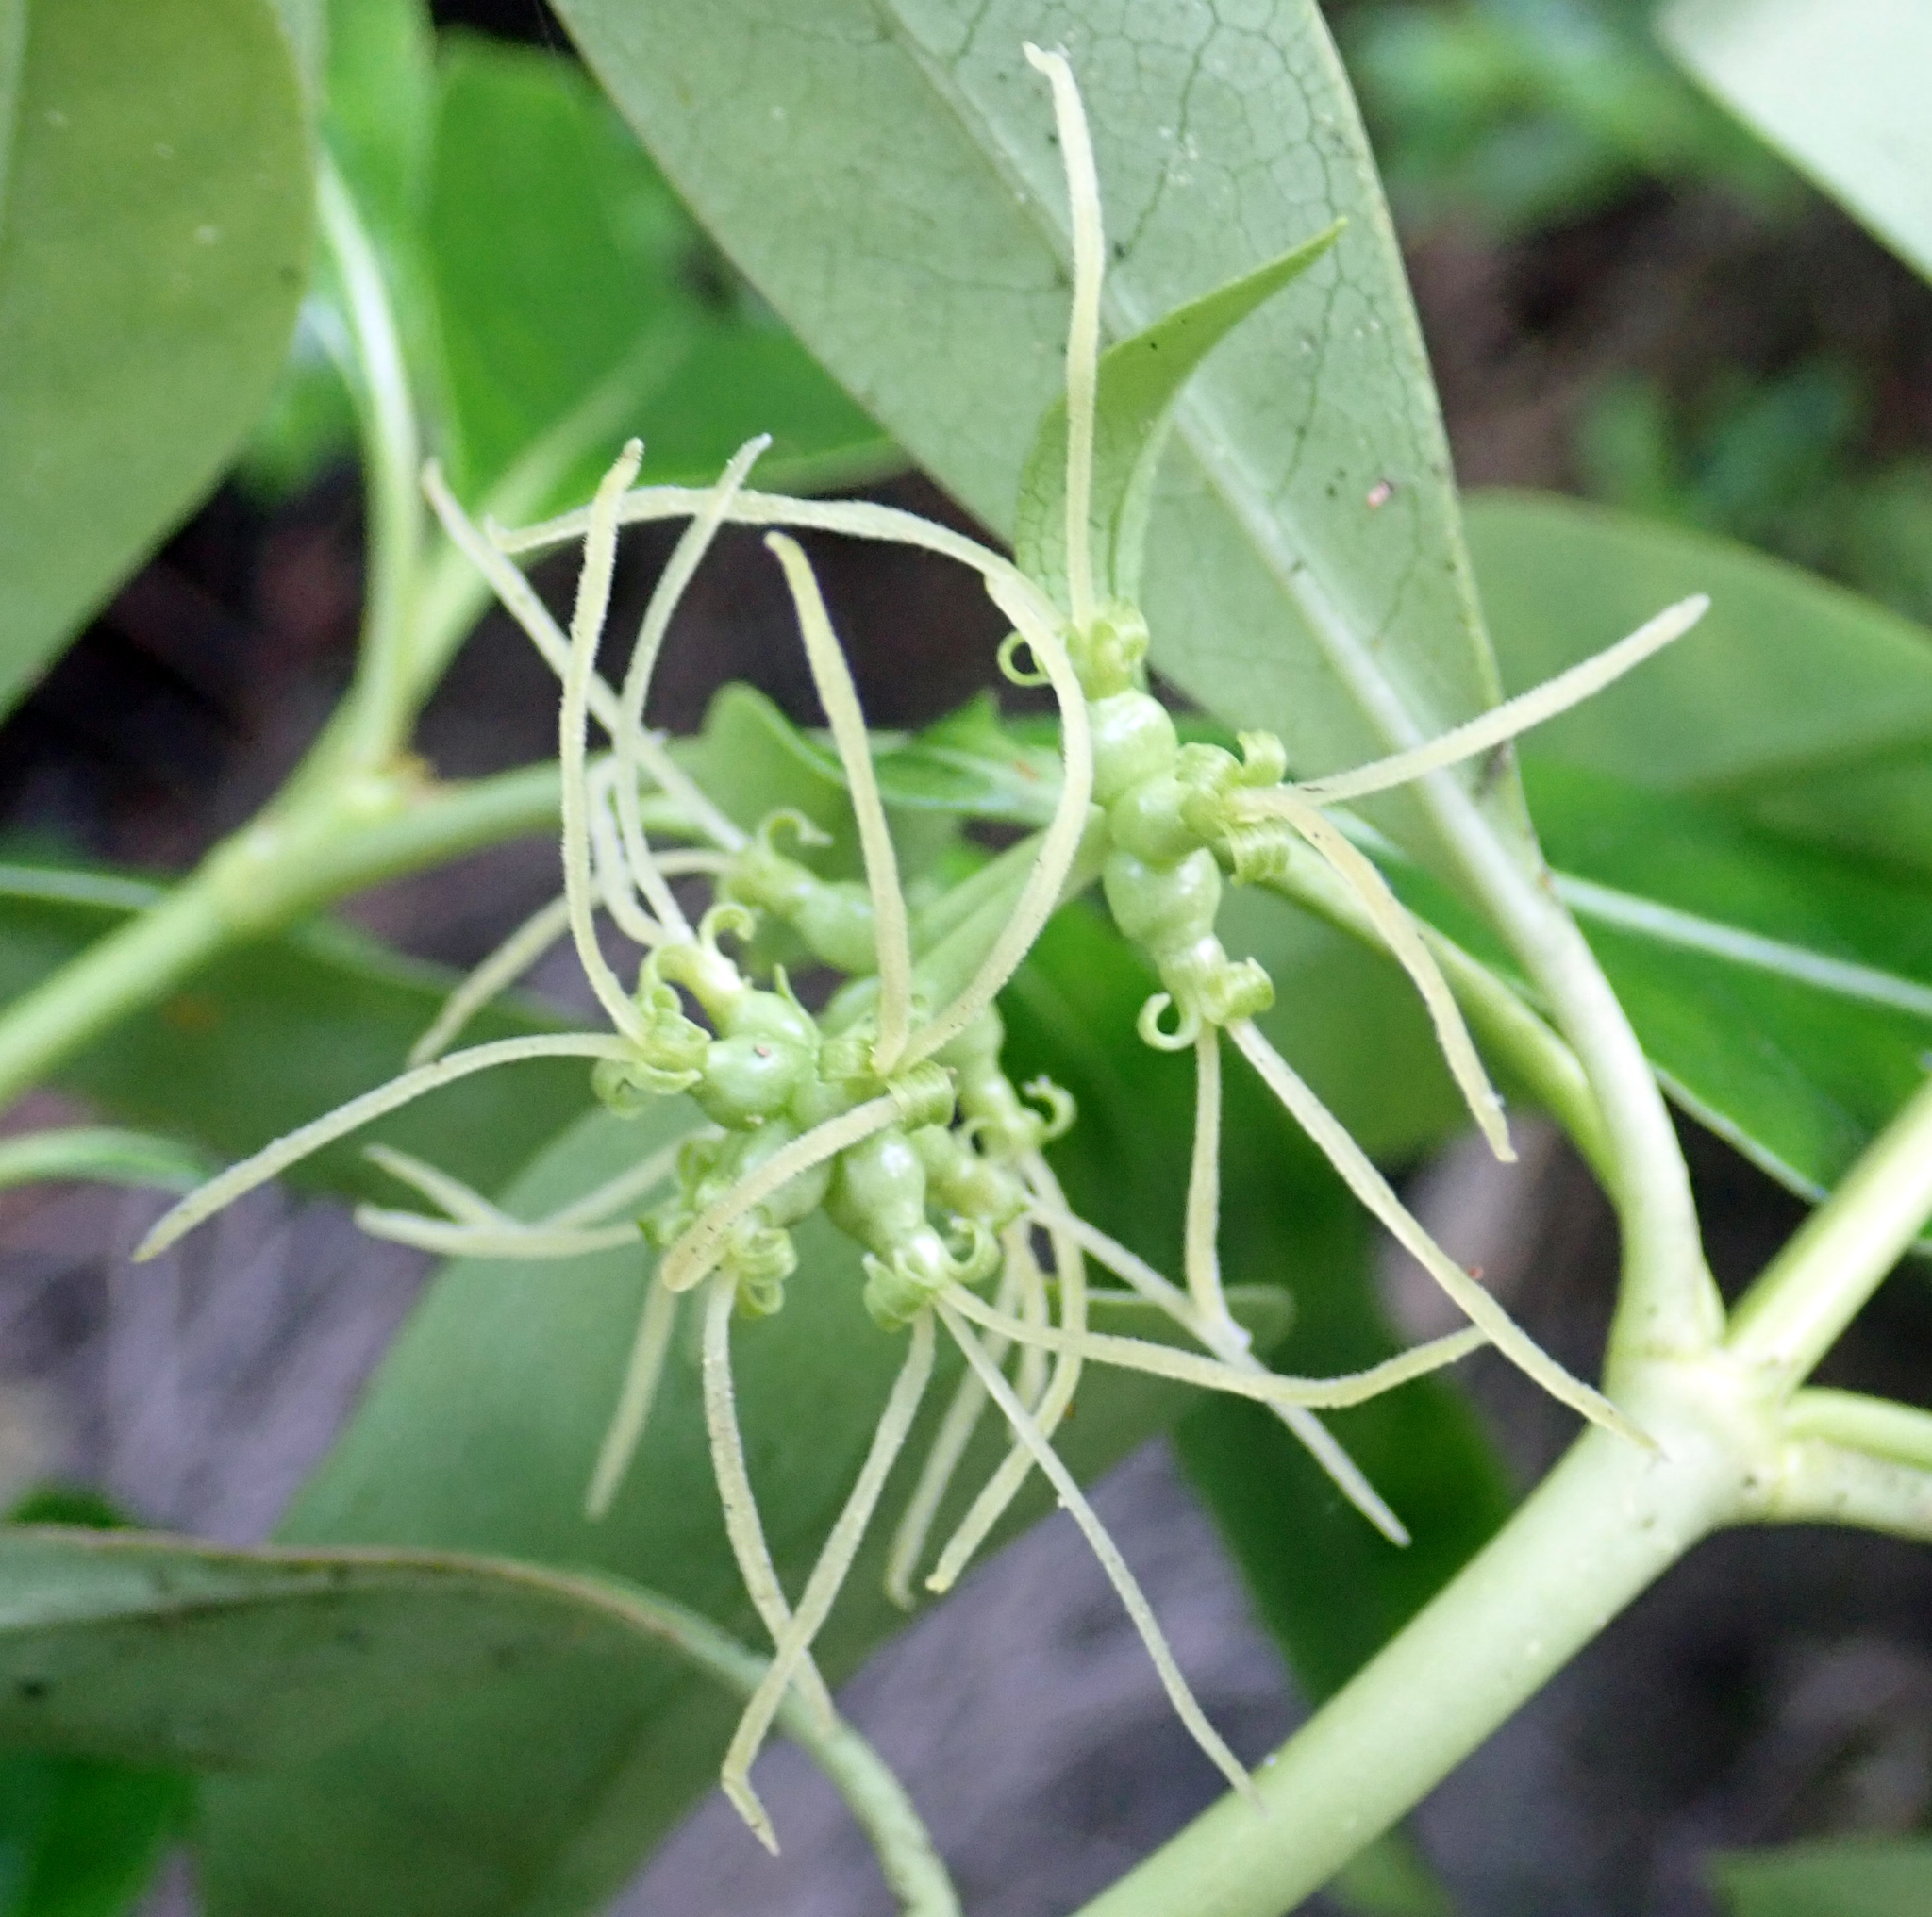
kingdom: Plantae
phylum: Tracheophyta
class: Magnoliopsida
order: Gentianales
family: Rubiaceae
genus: Coprosma
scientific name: Coprosma lucida
